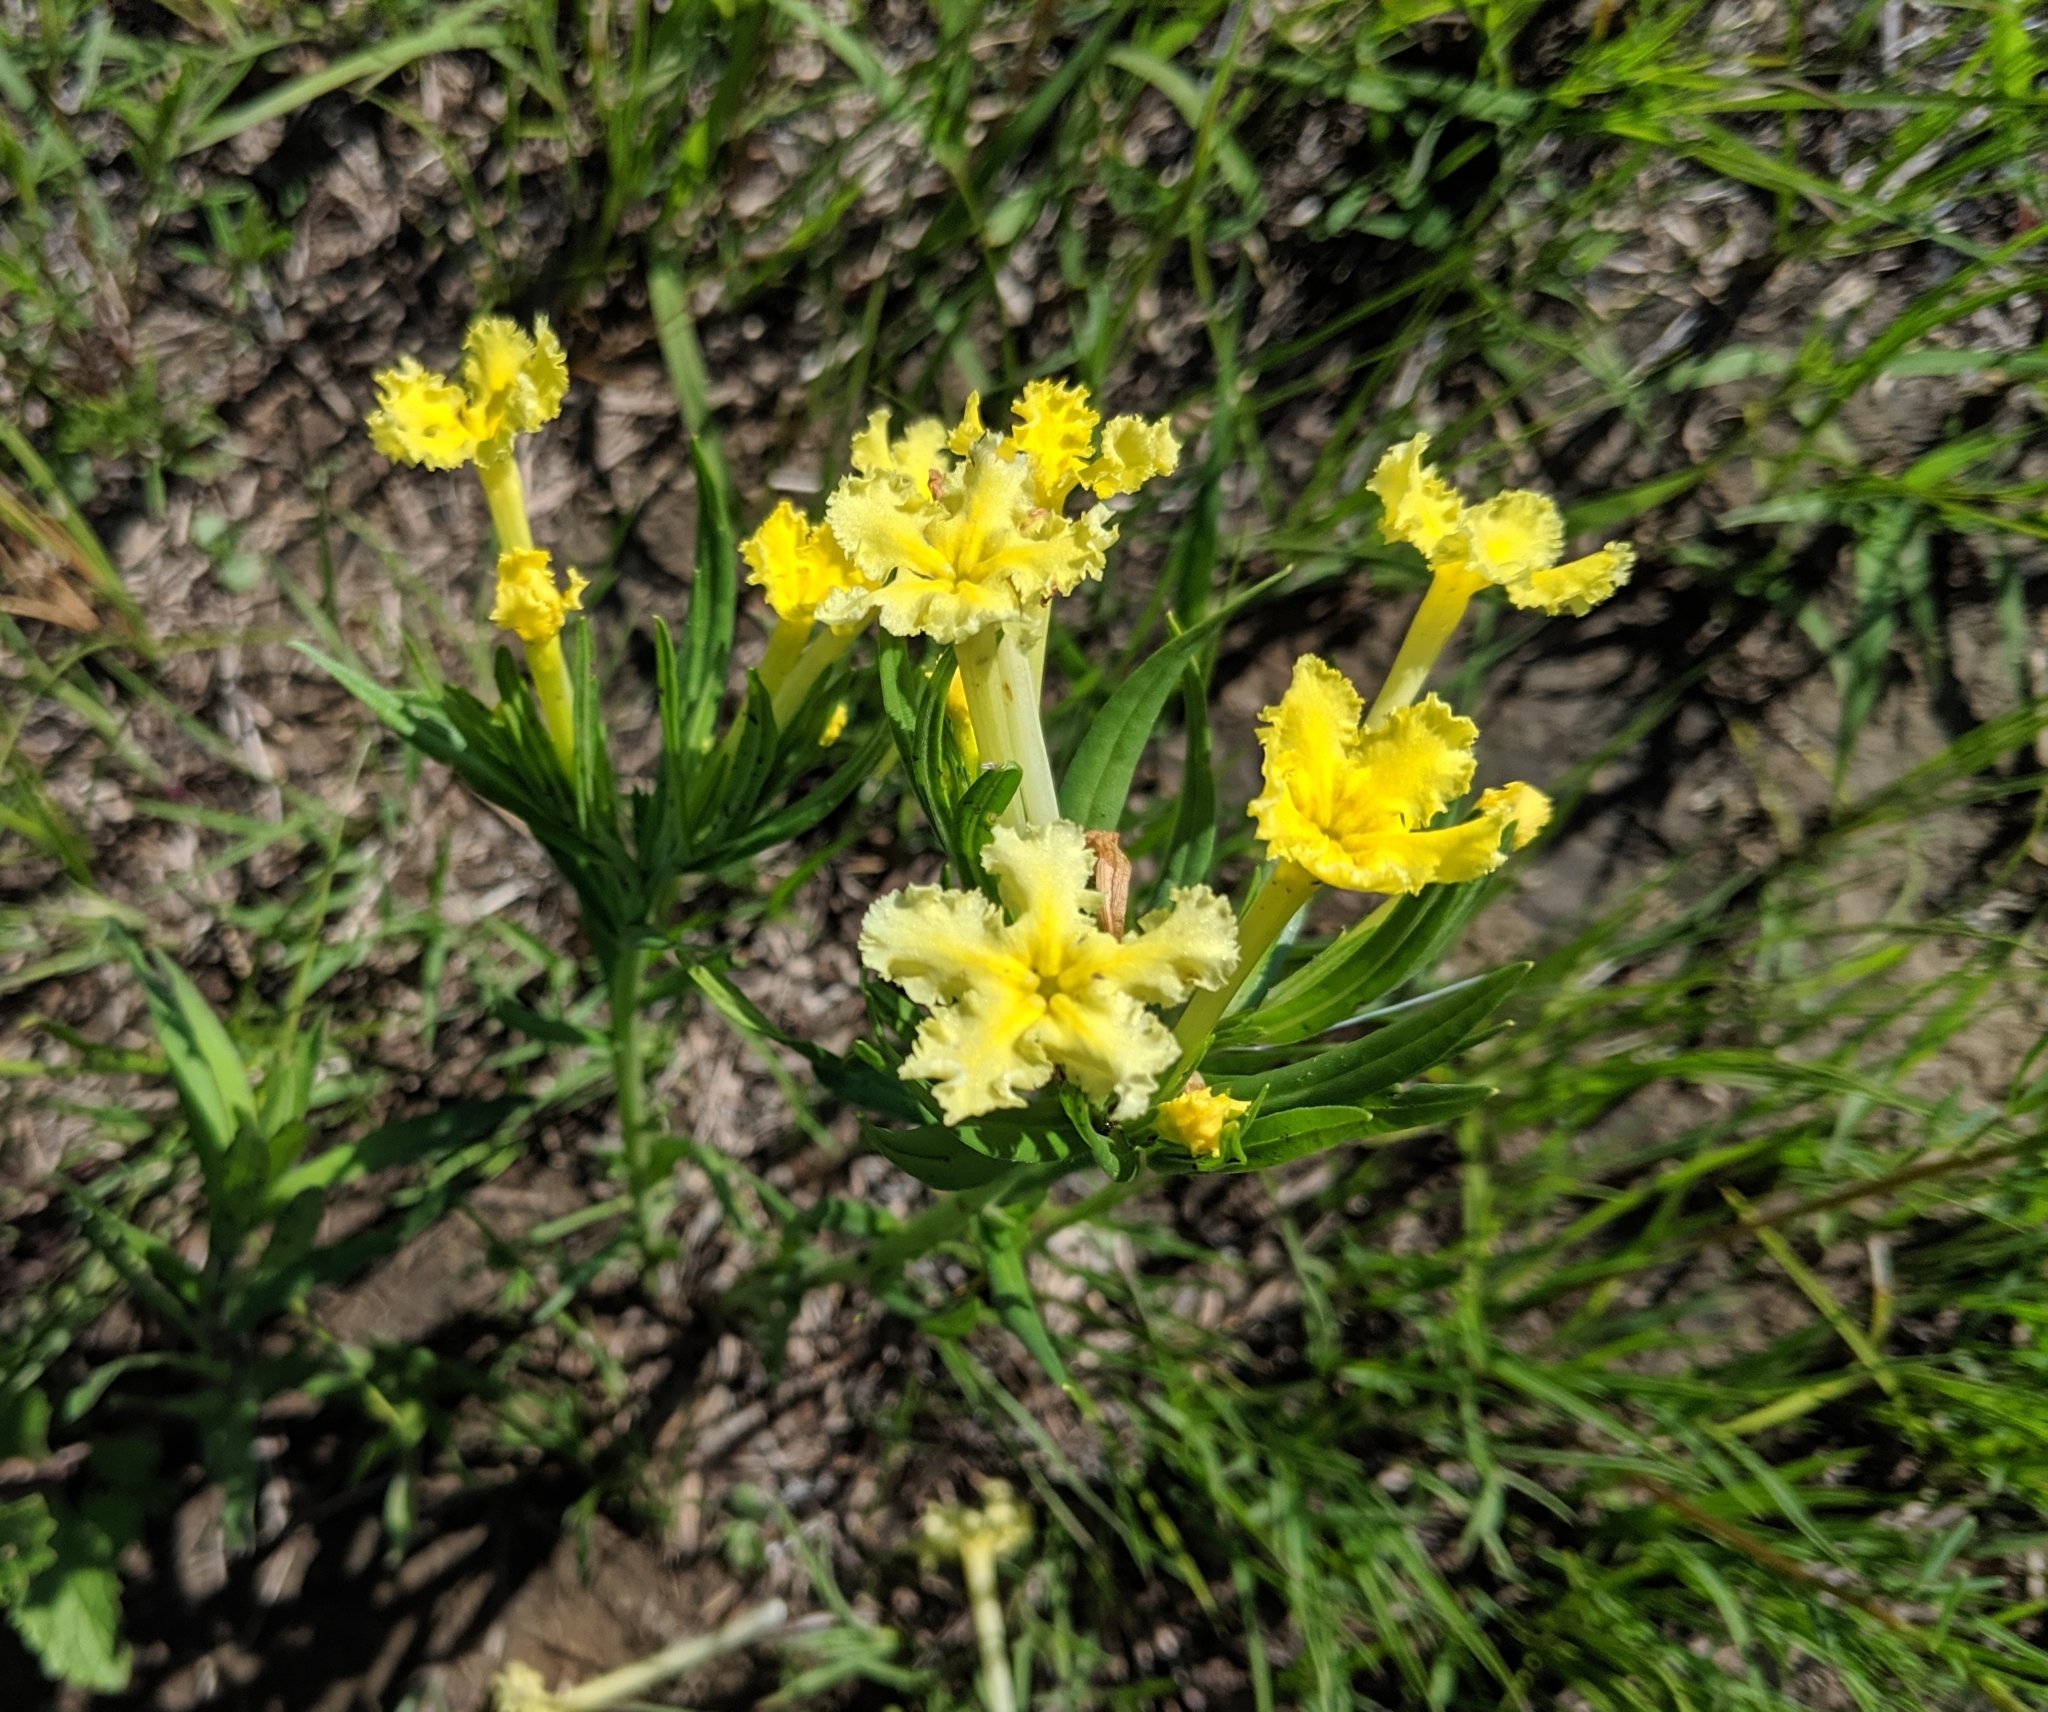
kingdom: Plantae
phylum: Tracheophyta
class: Magnoliopsida
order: Boraginales
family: Boraginaceae
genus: Lithospermum
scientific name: Lithospermum incisum
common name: Fringed gromwell
